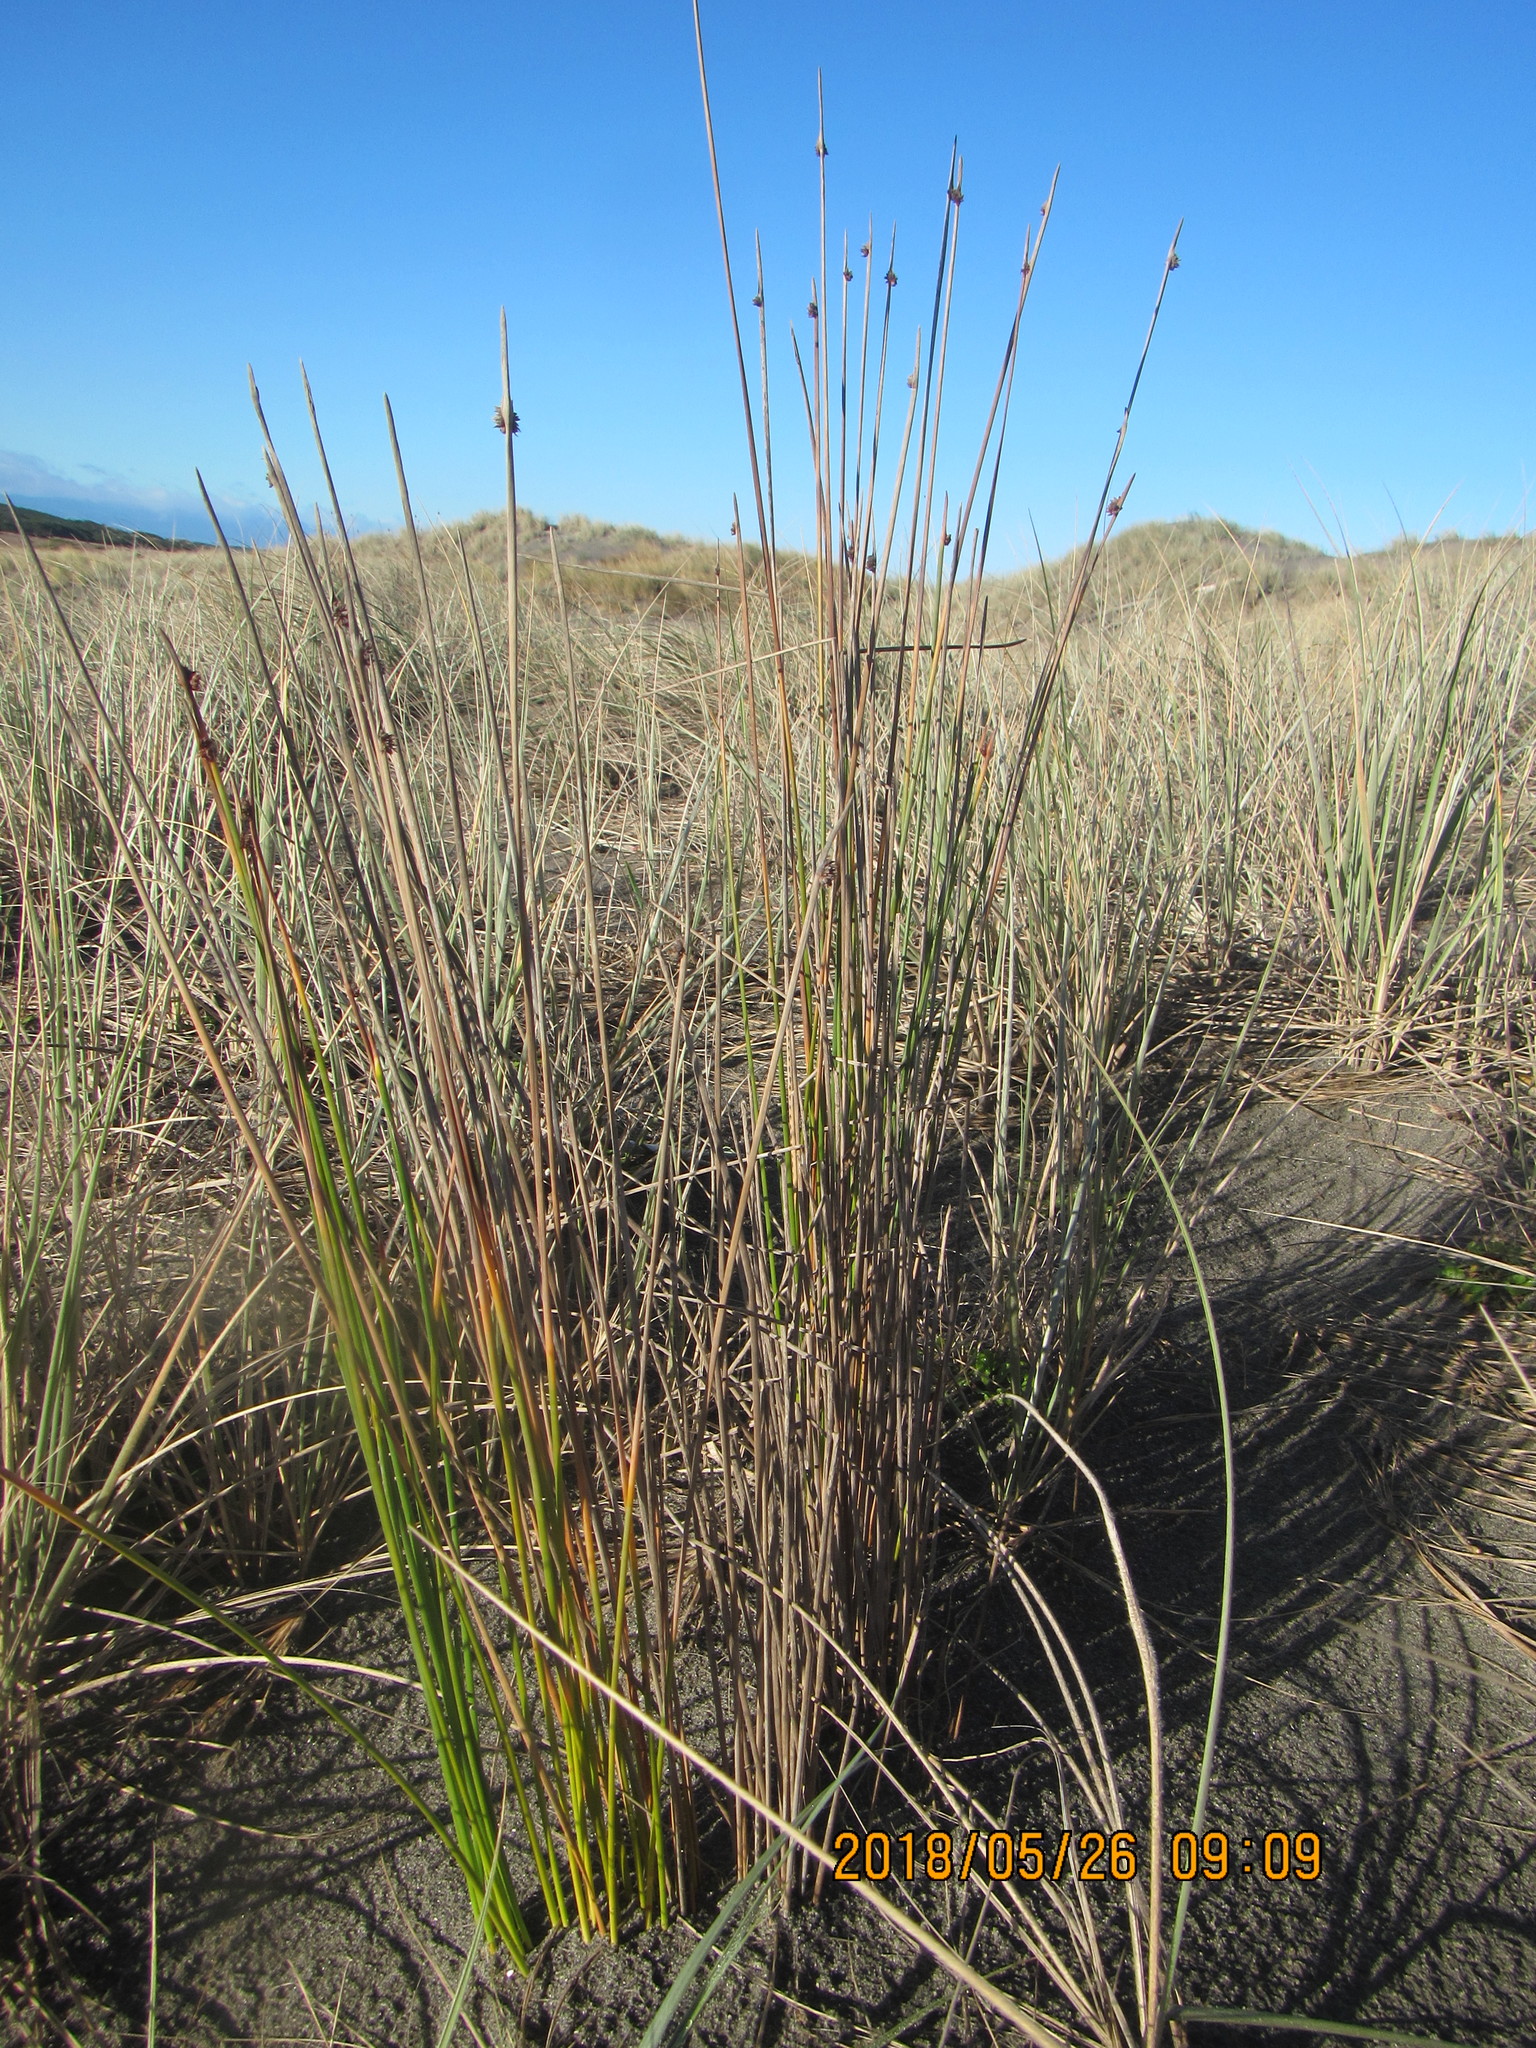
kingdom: Plantae
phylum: Tracheophyta
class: Liliopsida
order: Poales
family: Cyperaceae
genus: Ficinia
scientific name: Ficinia nodosa
